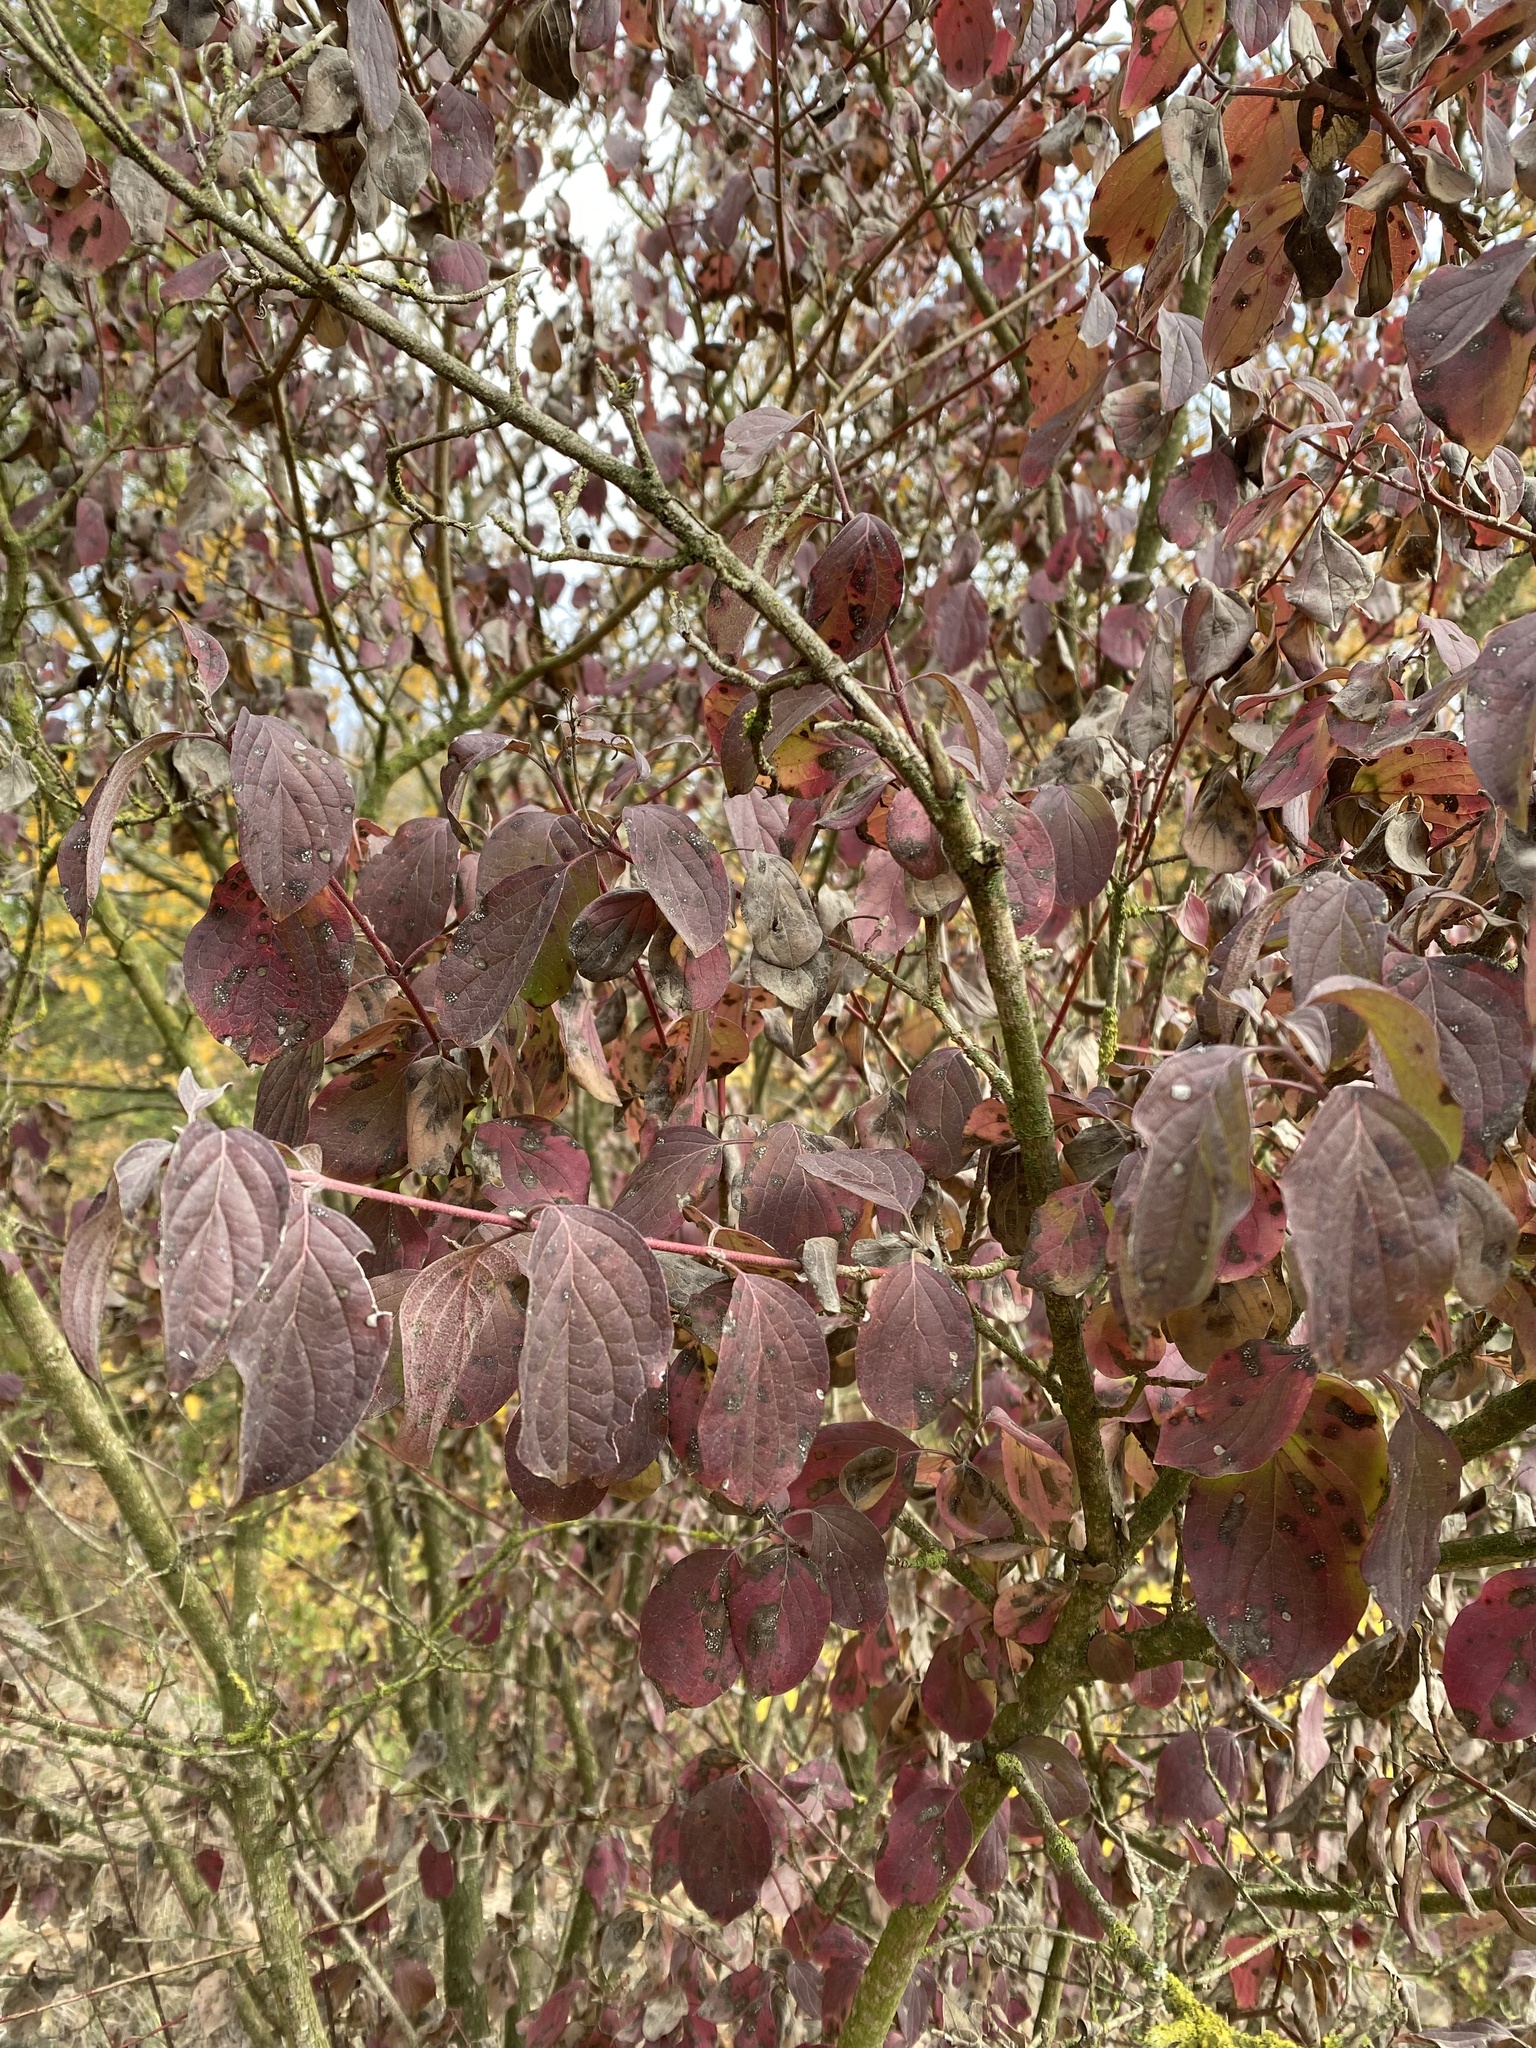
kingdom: Plantae
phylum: Tracheophyta
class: Magnoliopsida
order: Cornales
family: Cornaceae
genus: Cornus
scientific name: Cornus sanguinea
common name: Dogwood
